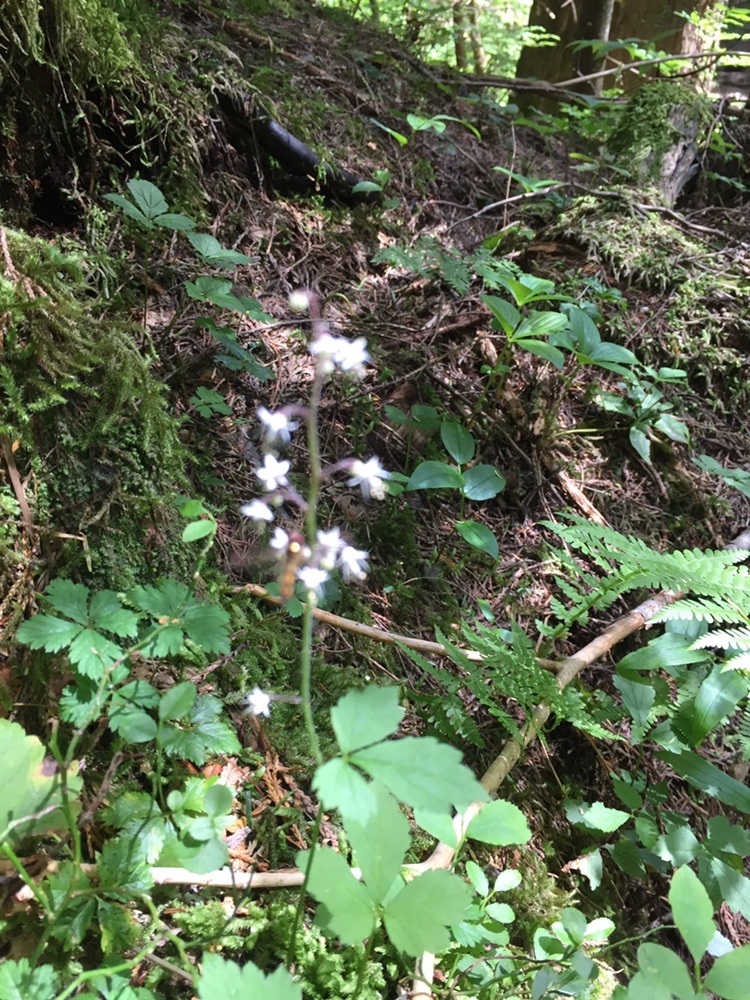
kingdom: Plantae
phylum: Tracheophyta
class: Magnoliopsida
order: Saxifragales
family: Saxifragaceae
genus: Tiarella
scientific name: Tiarella trifoliata
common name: Sugar-scoop
